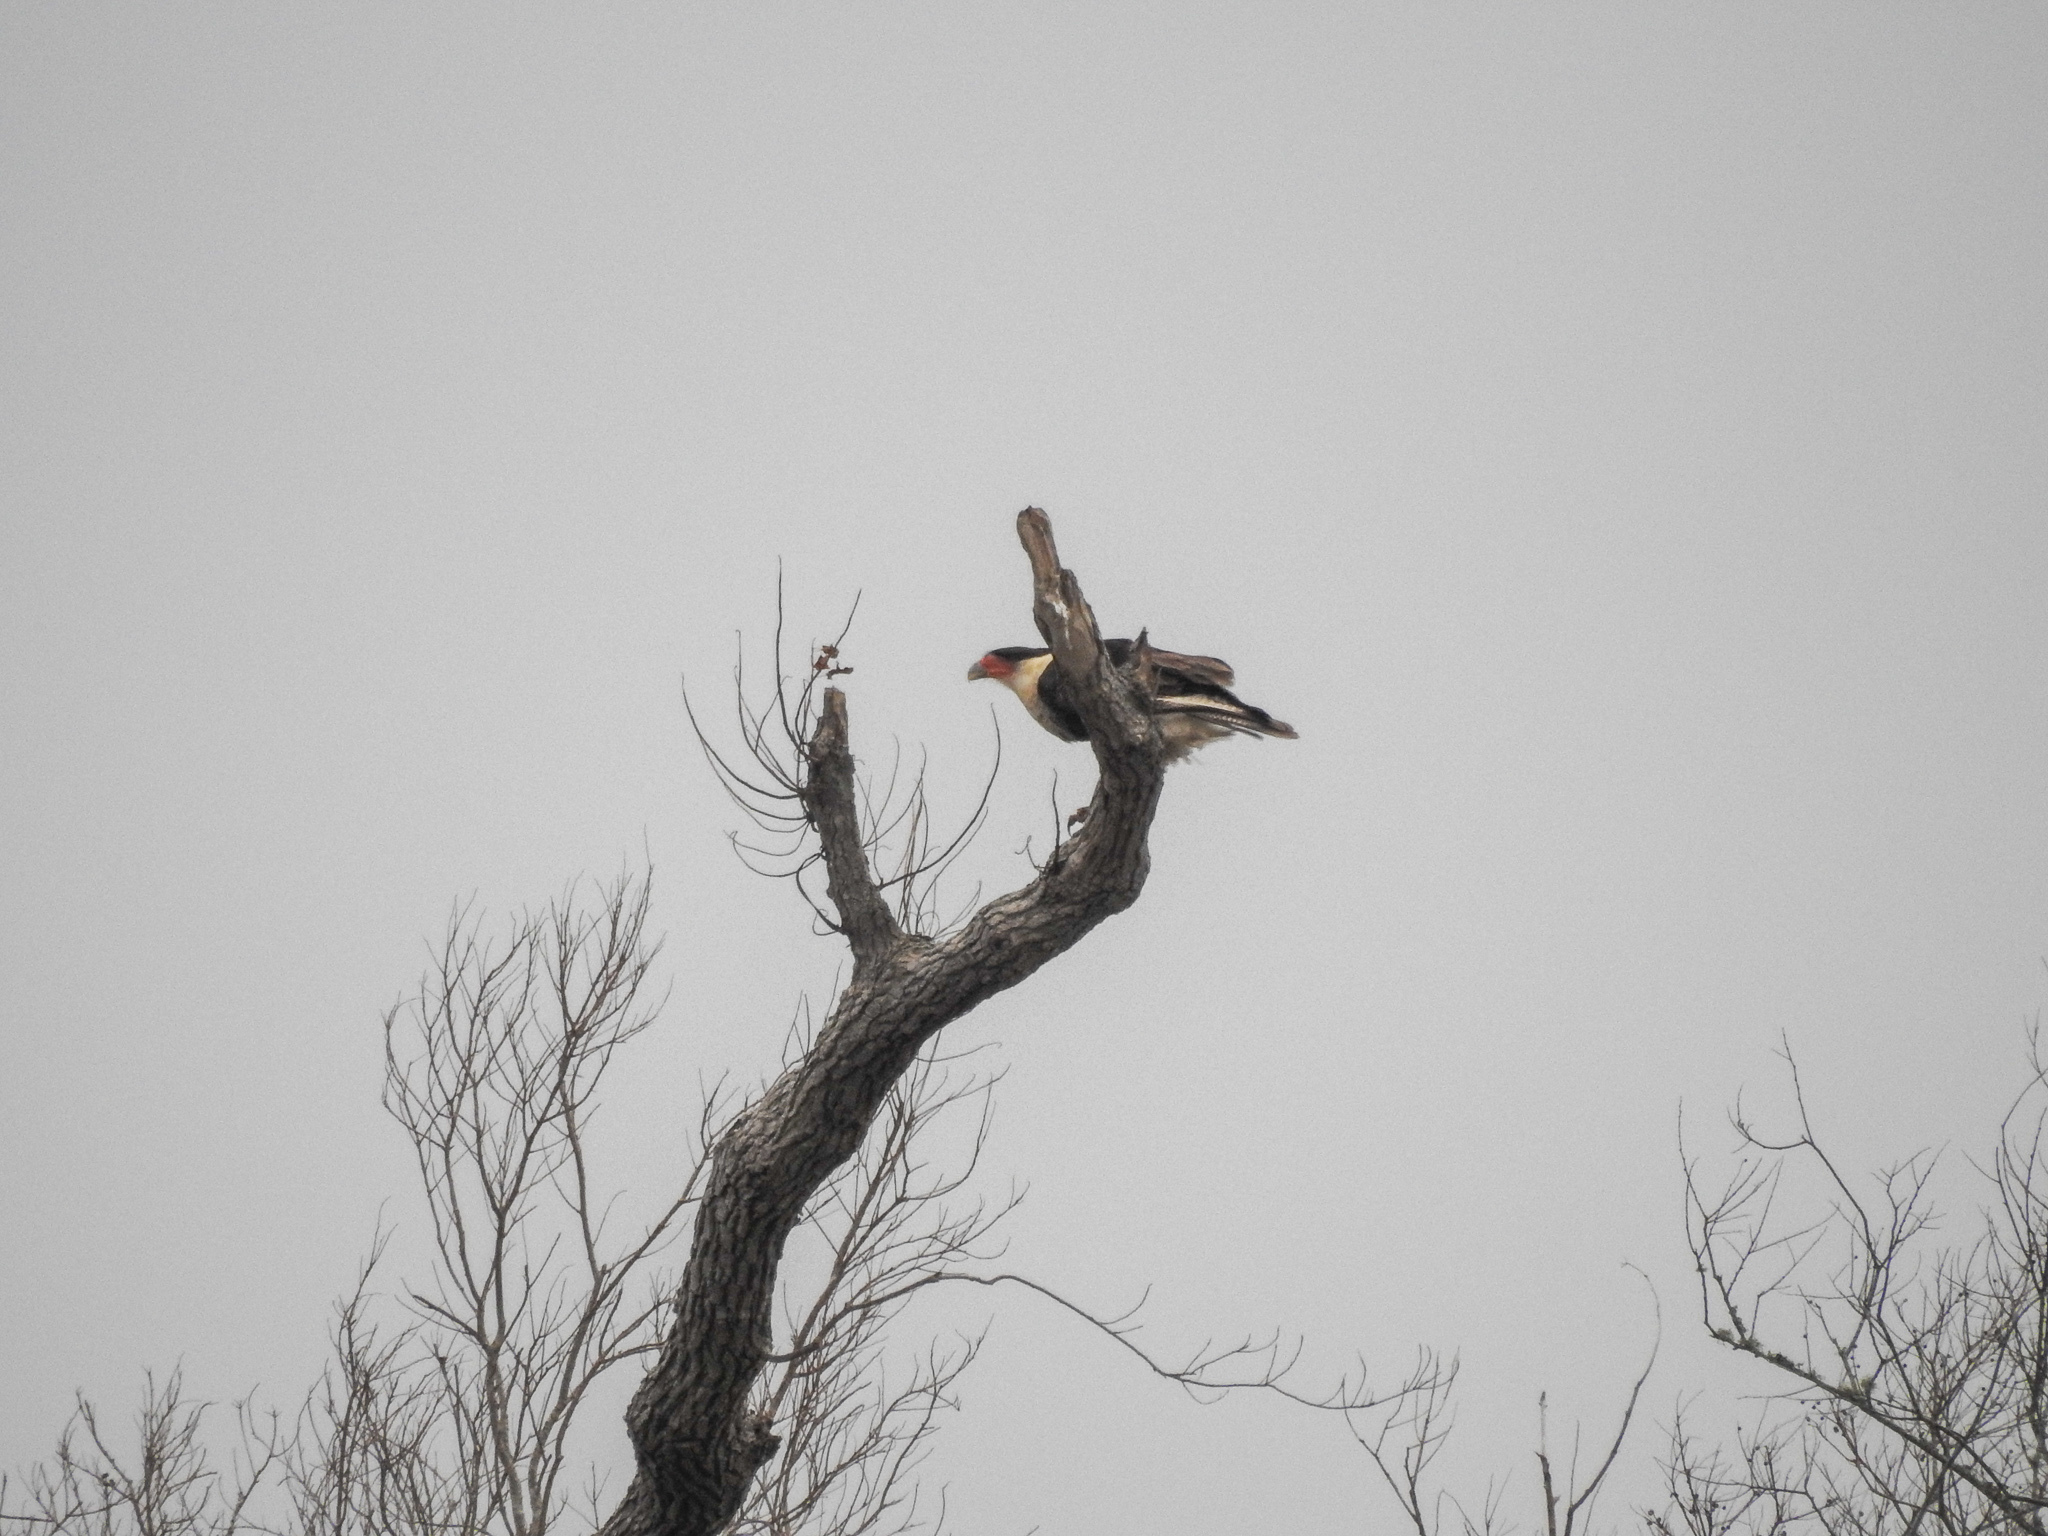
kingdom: Animalia
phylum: Chordata
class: Aves
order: Falconiformes
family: Falconidae
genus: Caracara
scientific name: Caracara plancus
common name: Southern caracara
